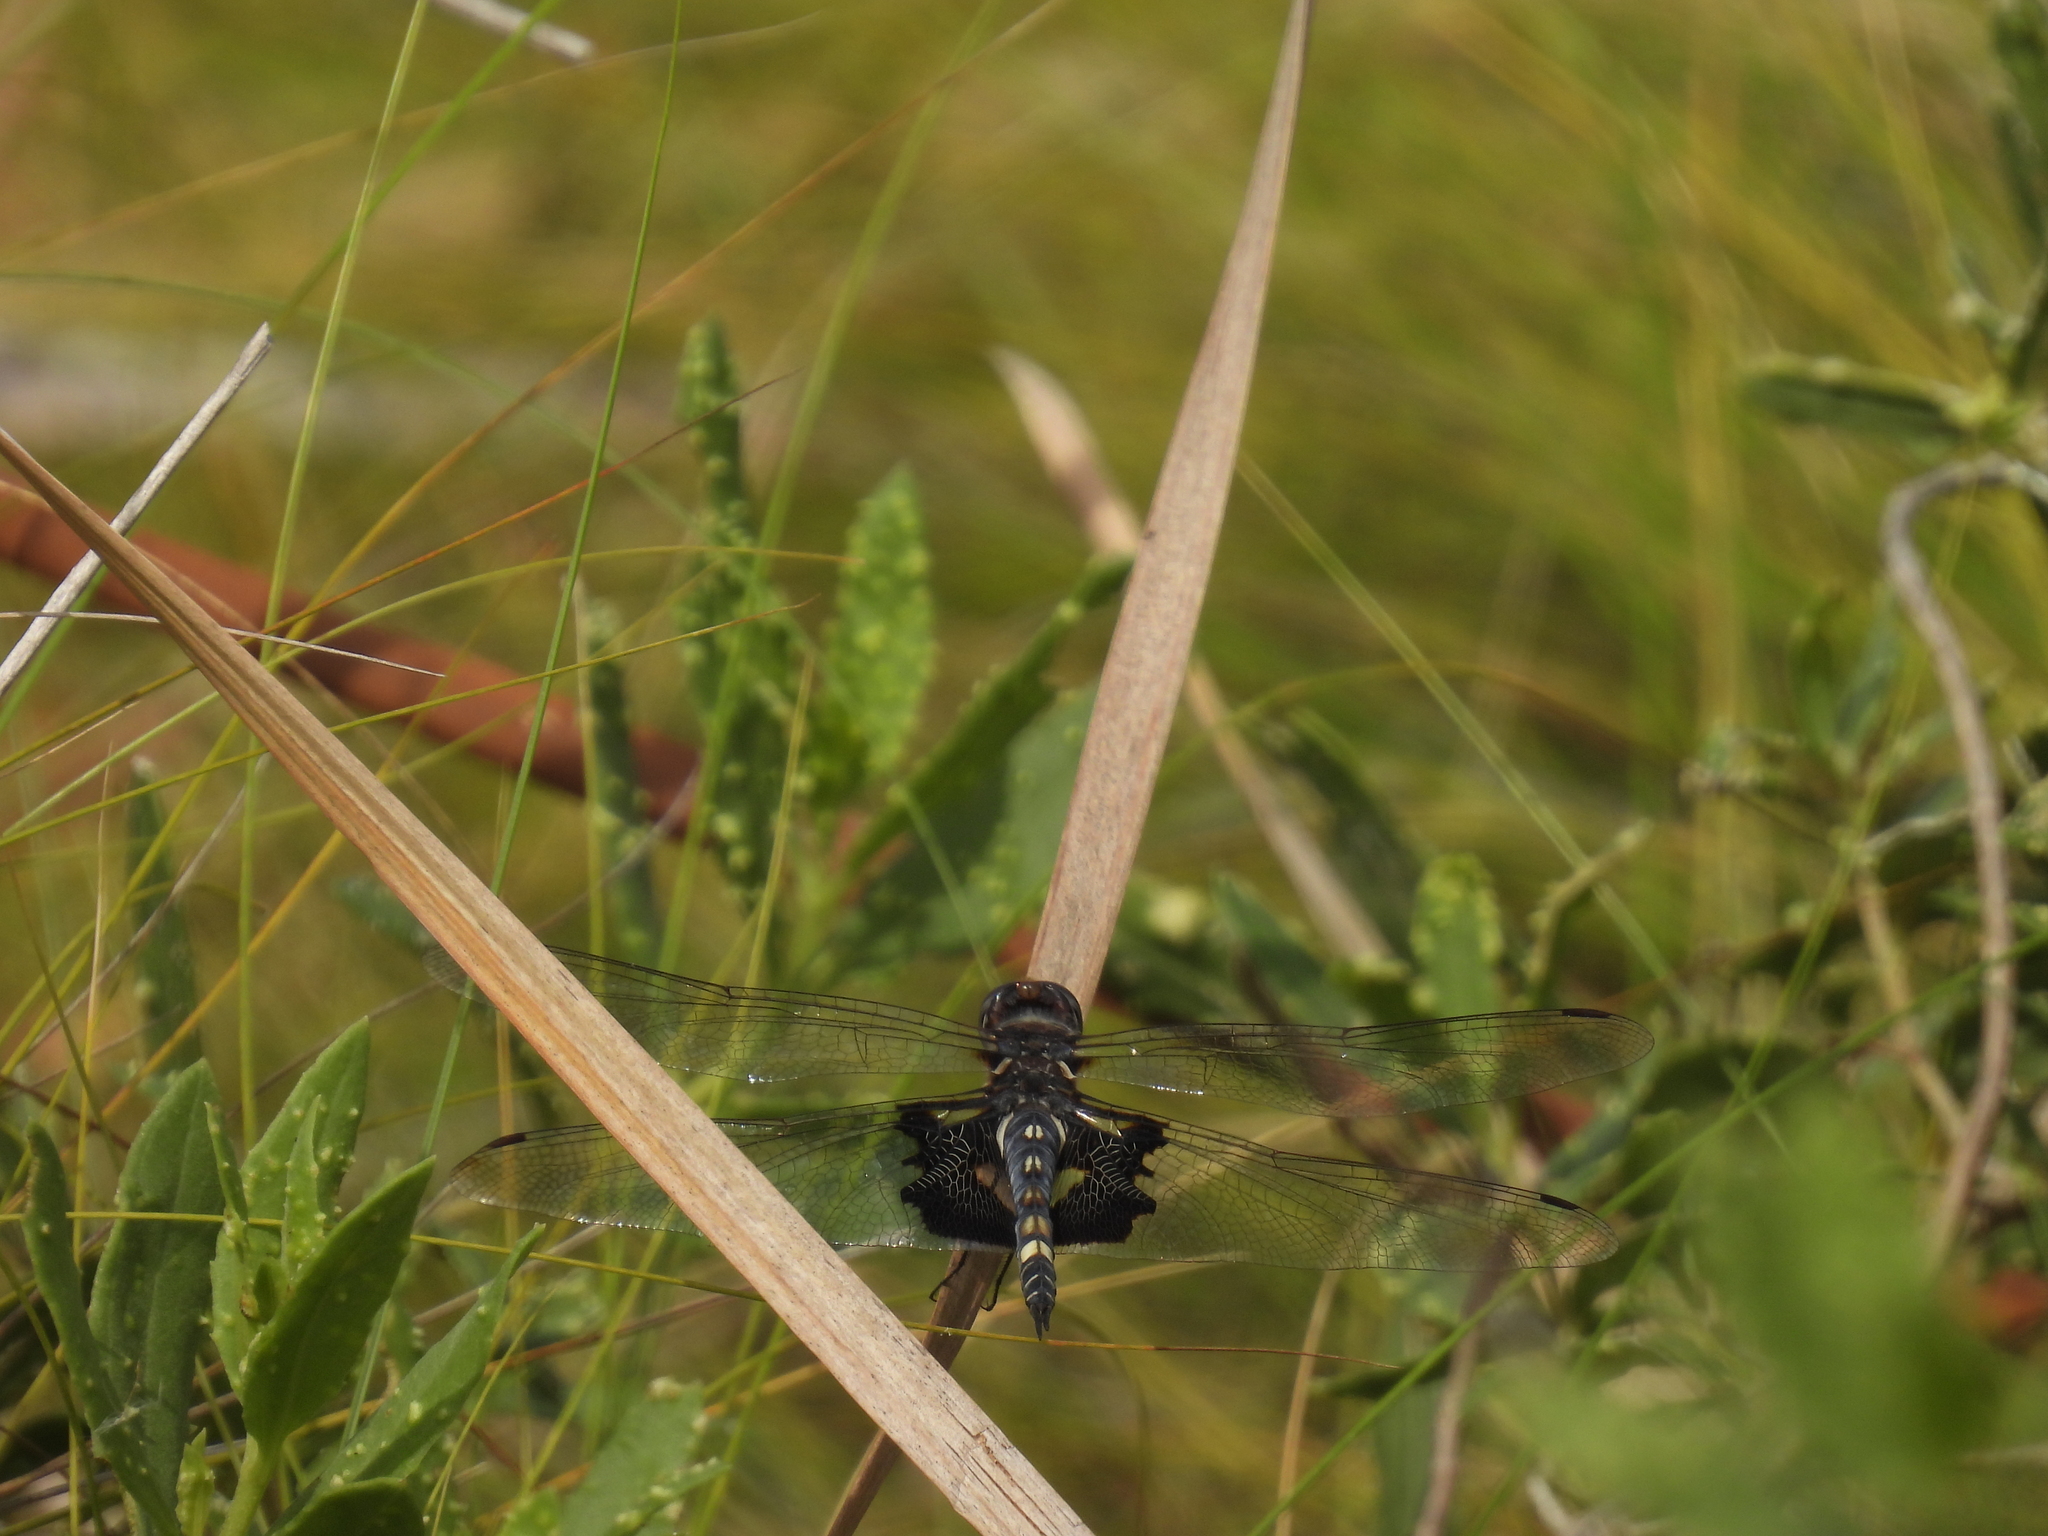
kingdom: Animalia
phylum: Arthropoda
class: Insecta
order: Odonata
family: Libellulidae
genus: Tramea
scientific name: Tramea lacerata
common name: Black saddlebags
